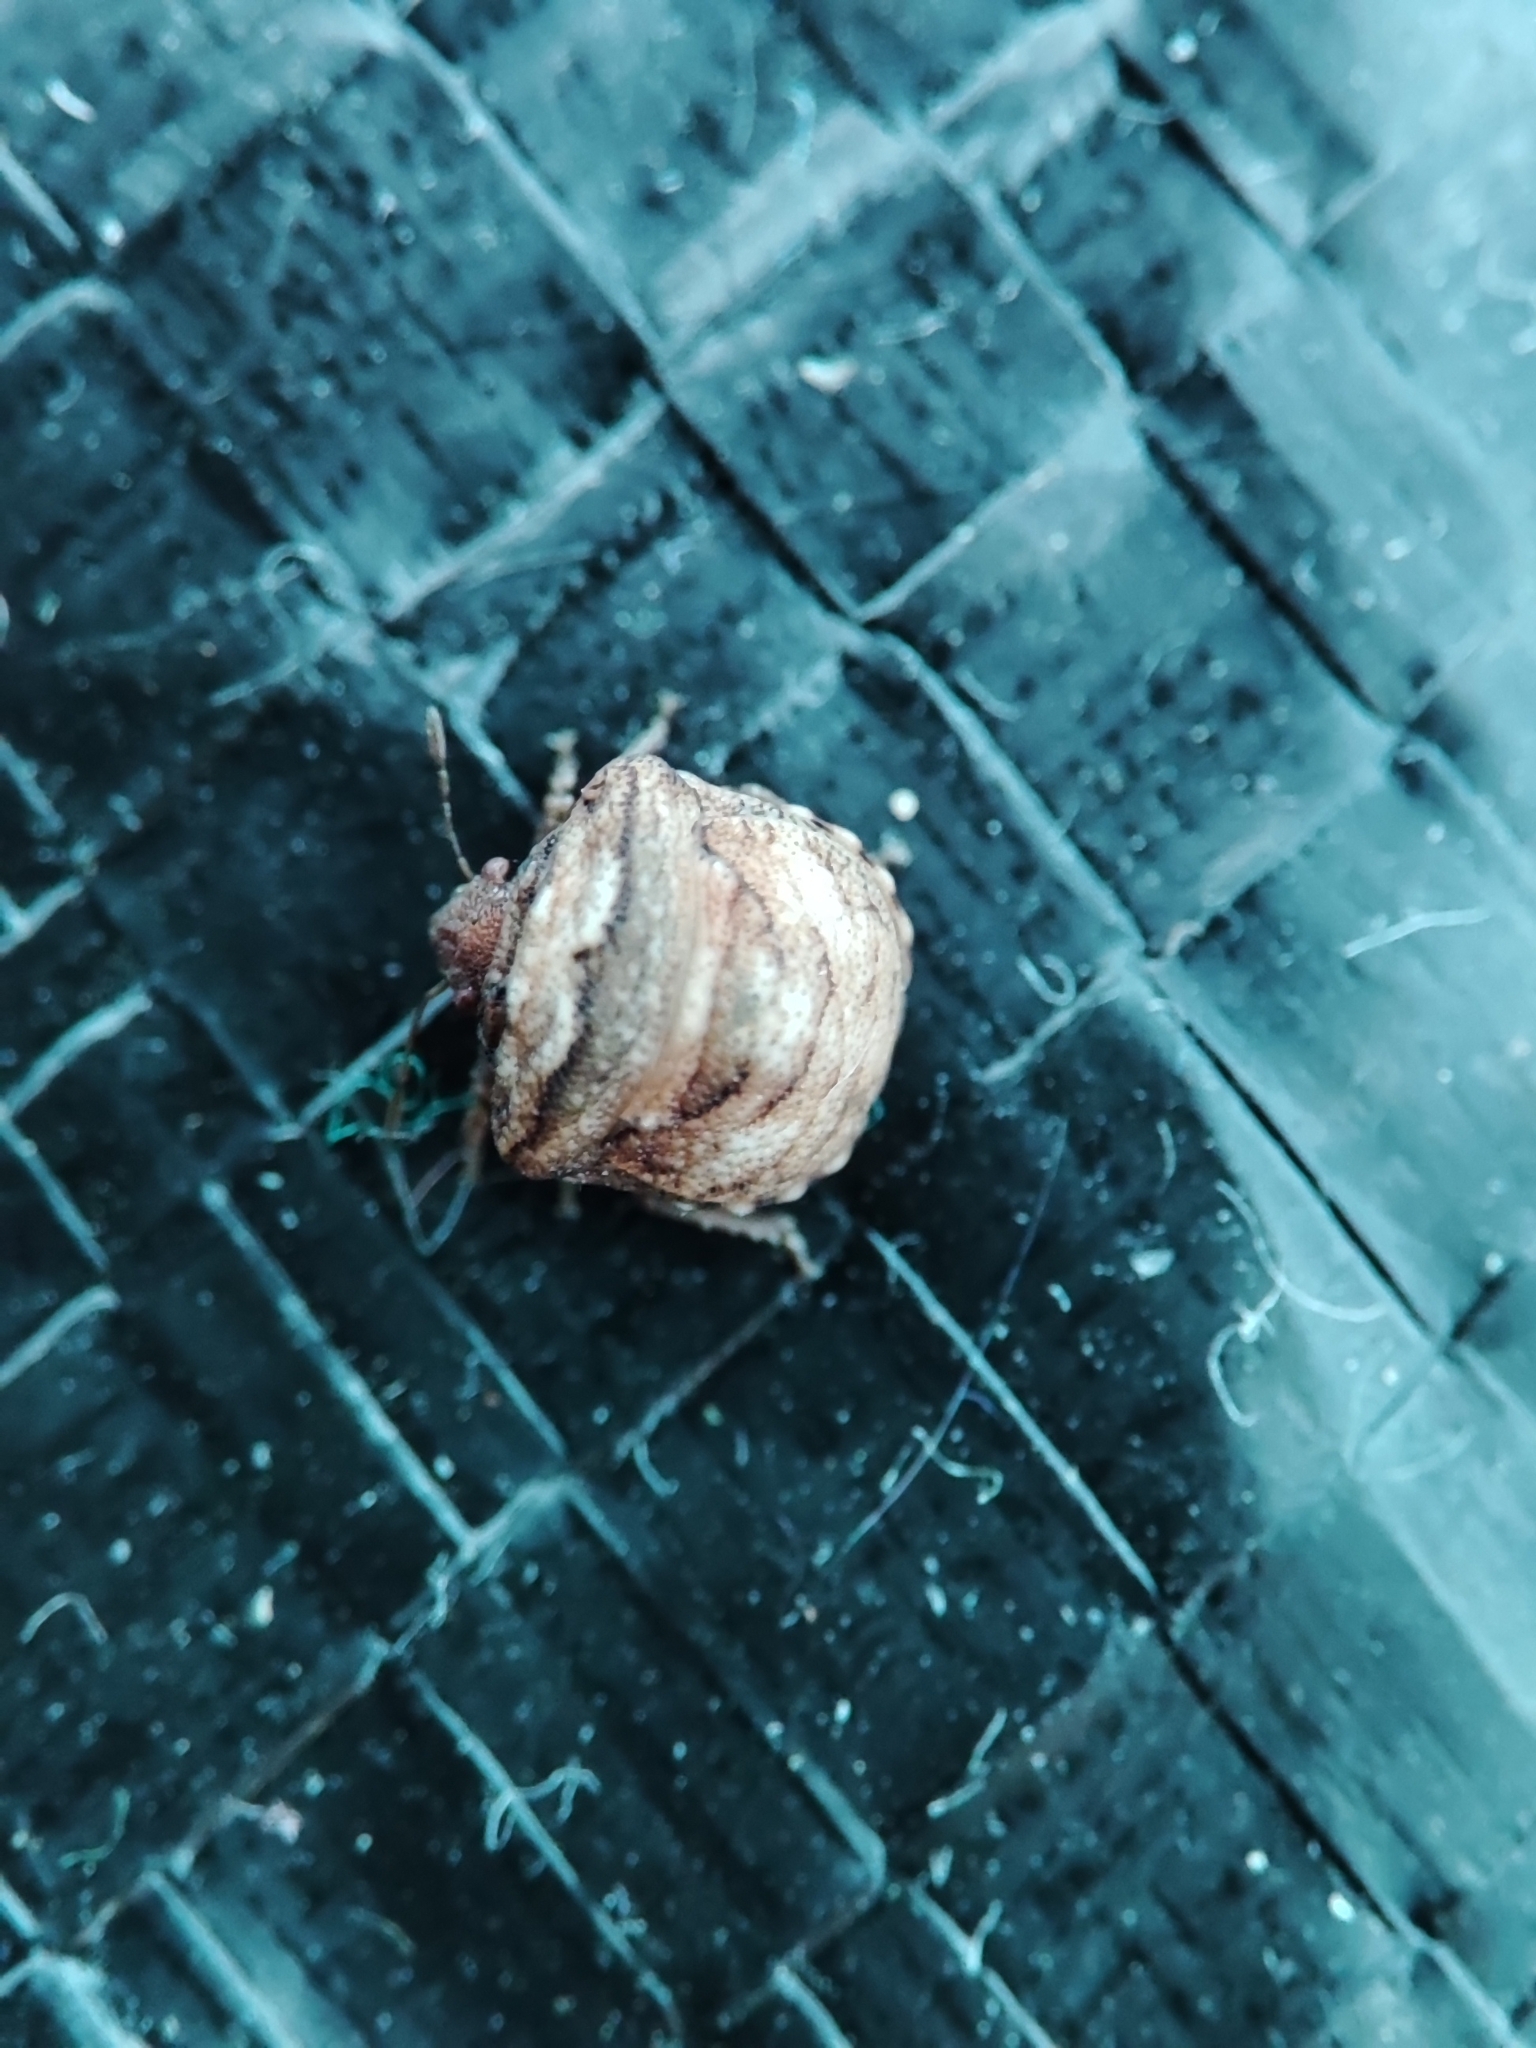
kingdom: Animalia
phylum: Arthropoda
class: Insecta
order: Hemiptera
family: Pentatomidae
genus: Vilpianus
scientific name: Vilpianus galii
